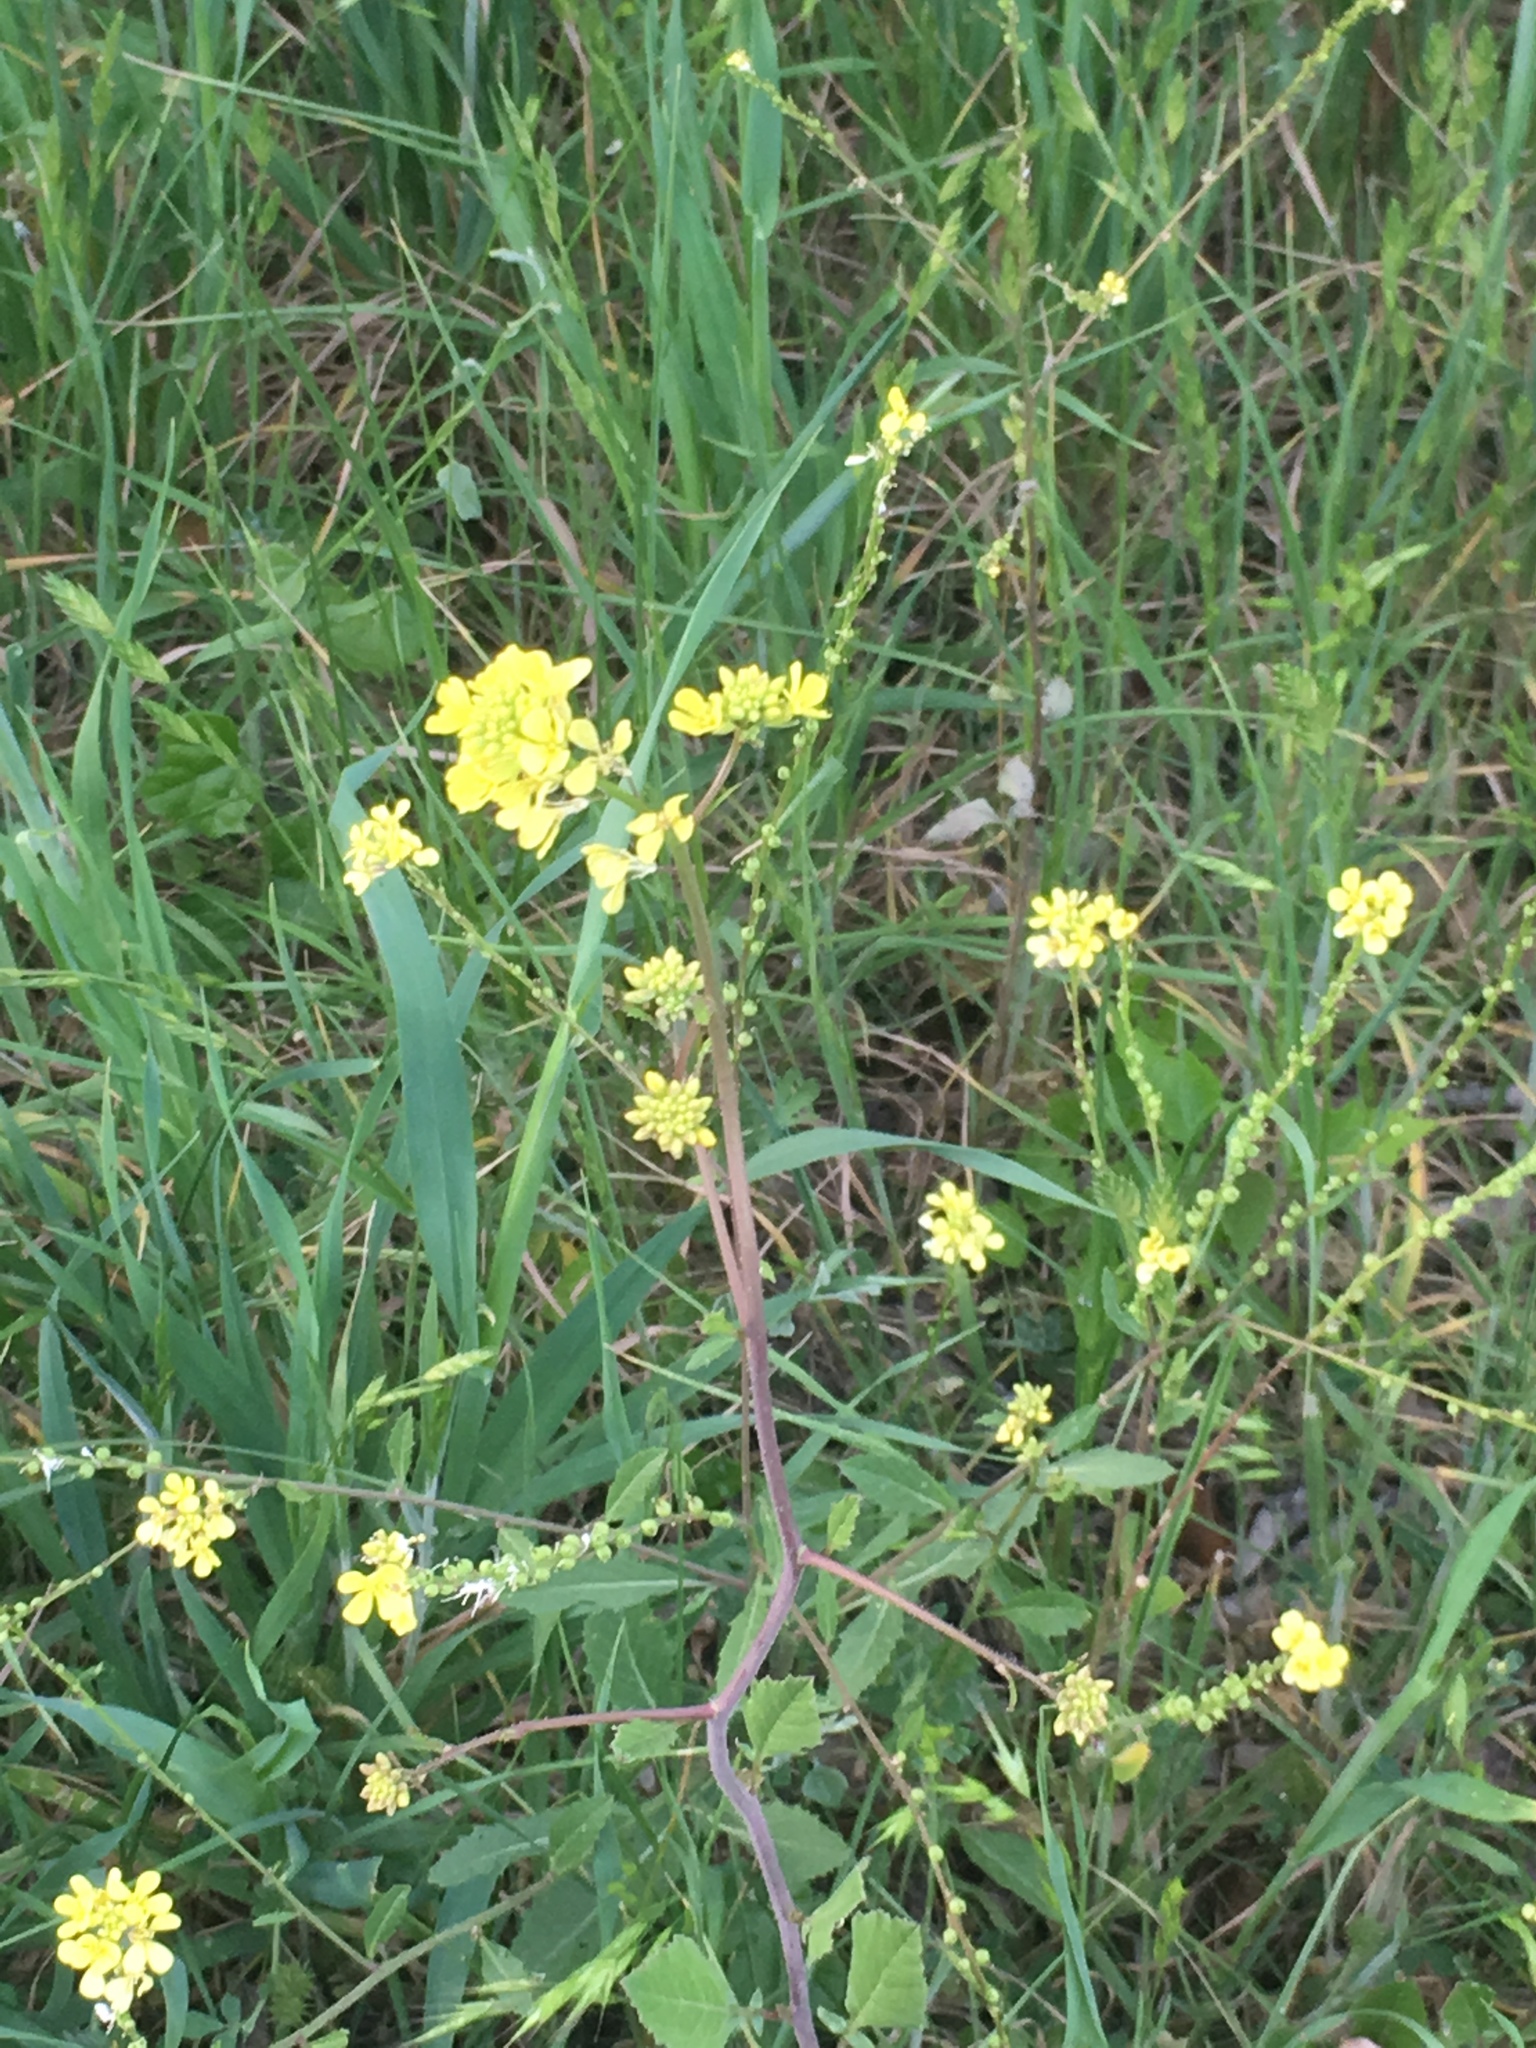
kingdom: Plantae
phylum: Tracheophyta
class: Magnoliopsida
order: Brassicales
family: Brassicaceae
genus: Rapistrum
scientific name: Rapistrum rugosum
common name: Annual bastardcabbage
